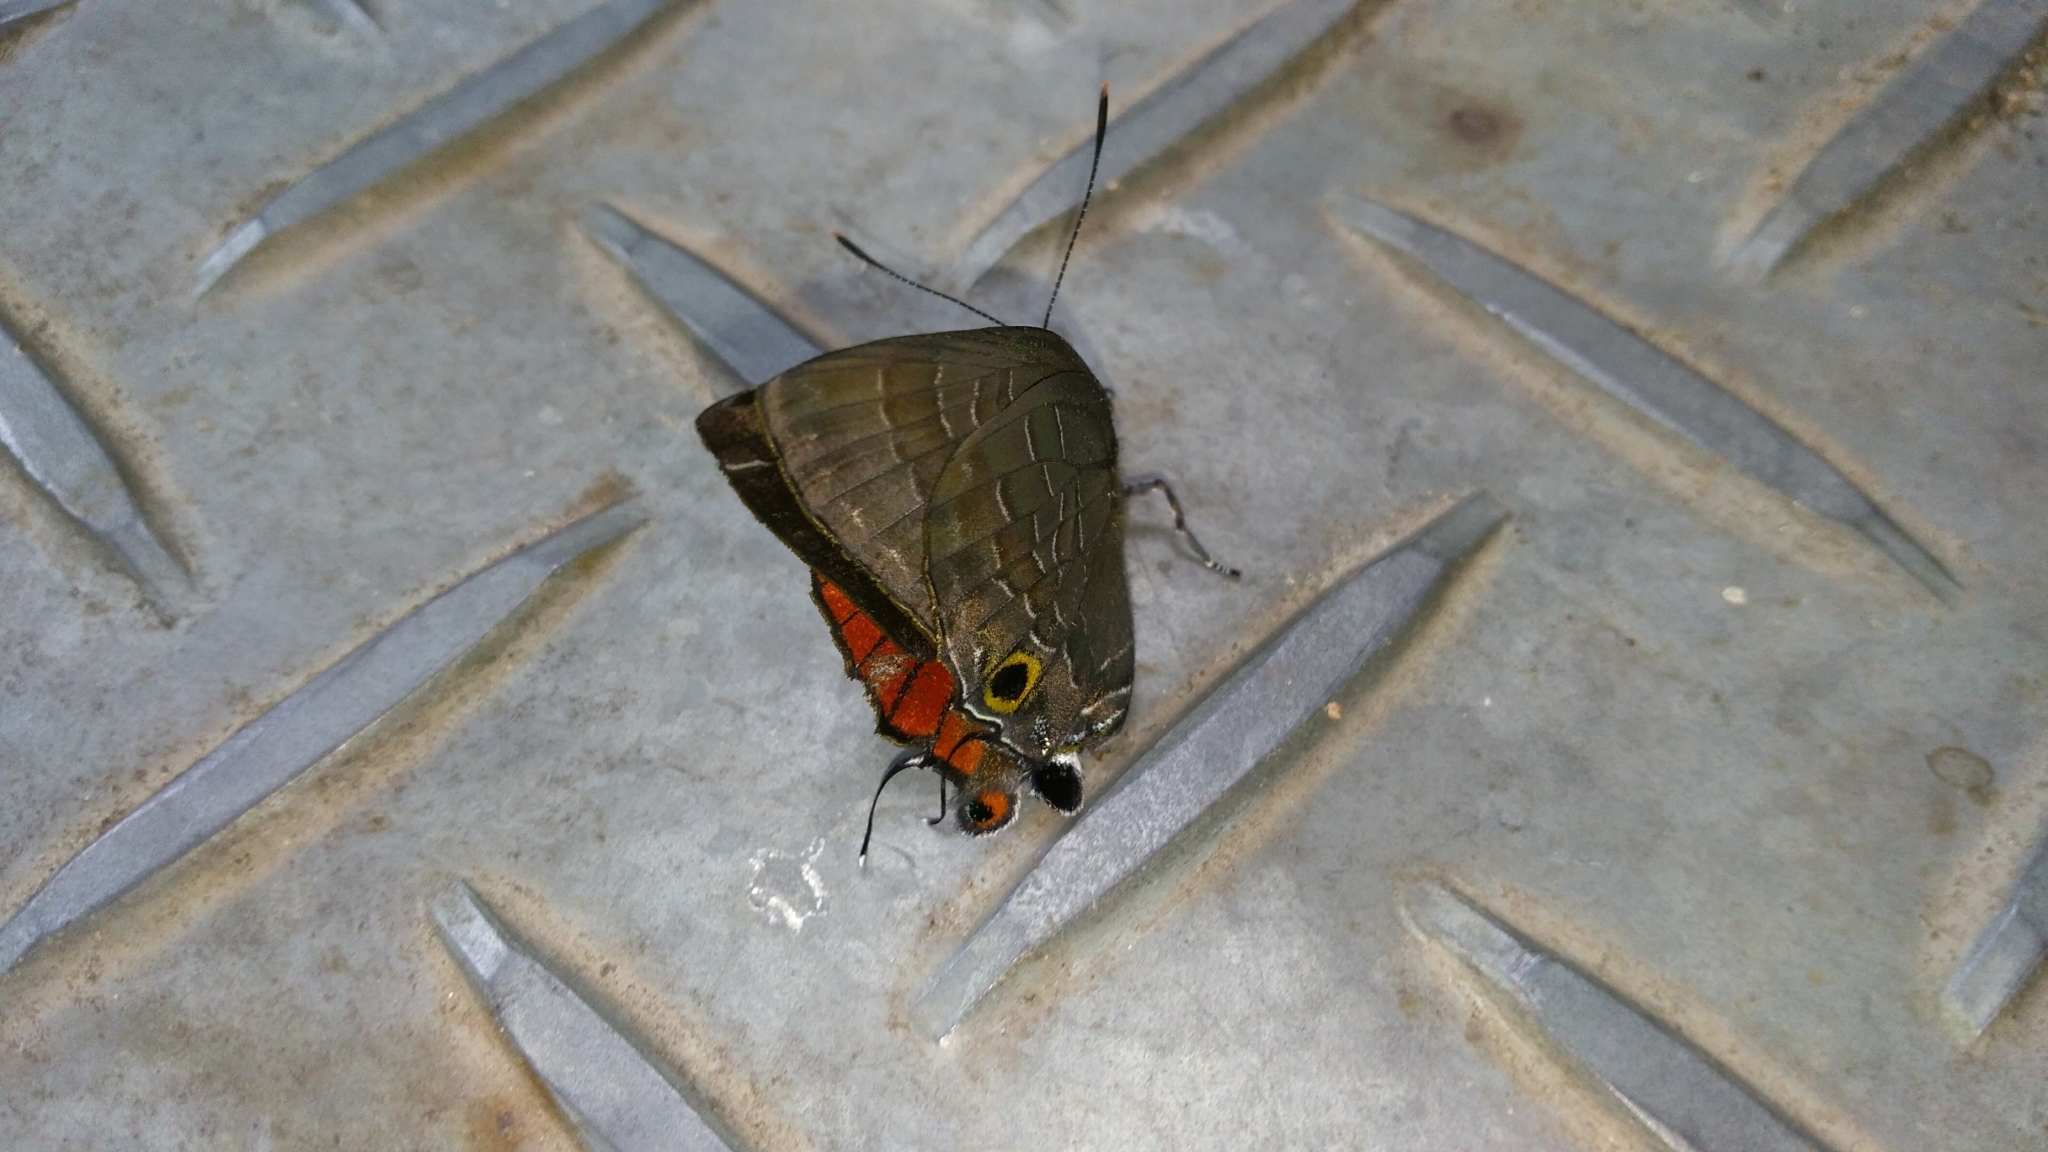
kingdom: Animalia
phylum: Arthropoda
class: Insecta
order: Lepidoptera
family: Lycaenidae
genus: Deudorix
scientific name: Deudorix epijarbas
